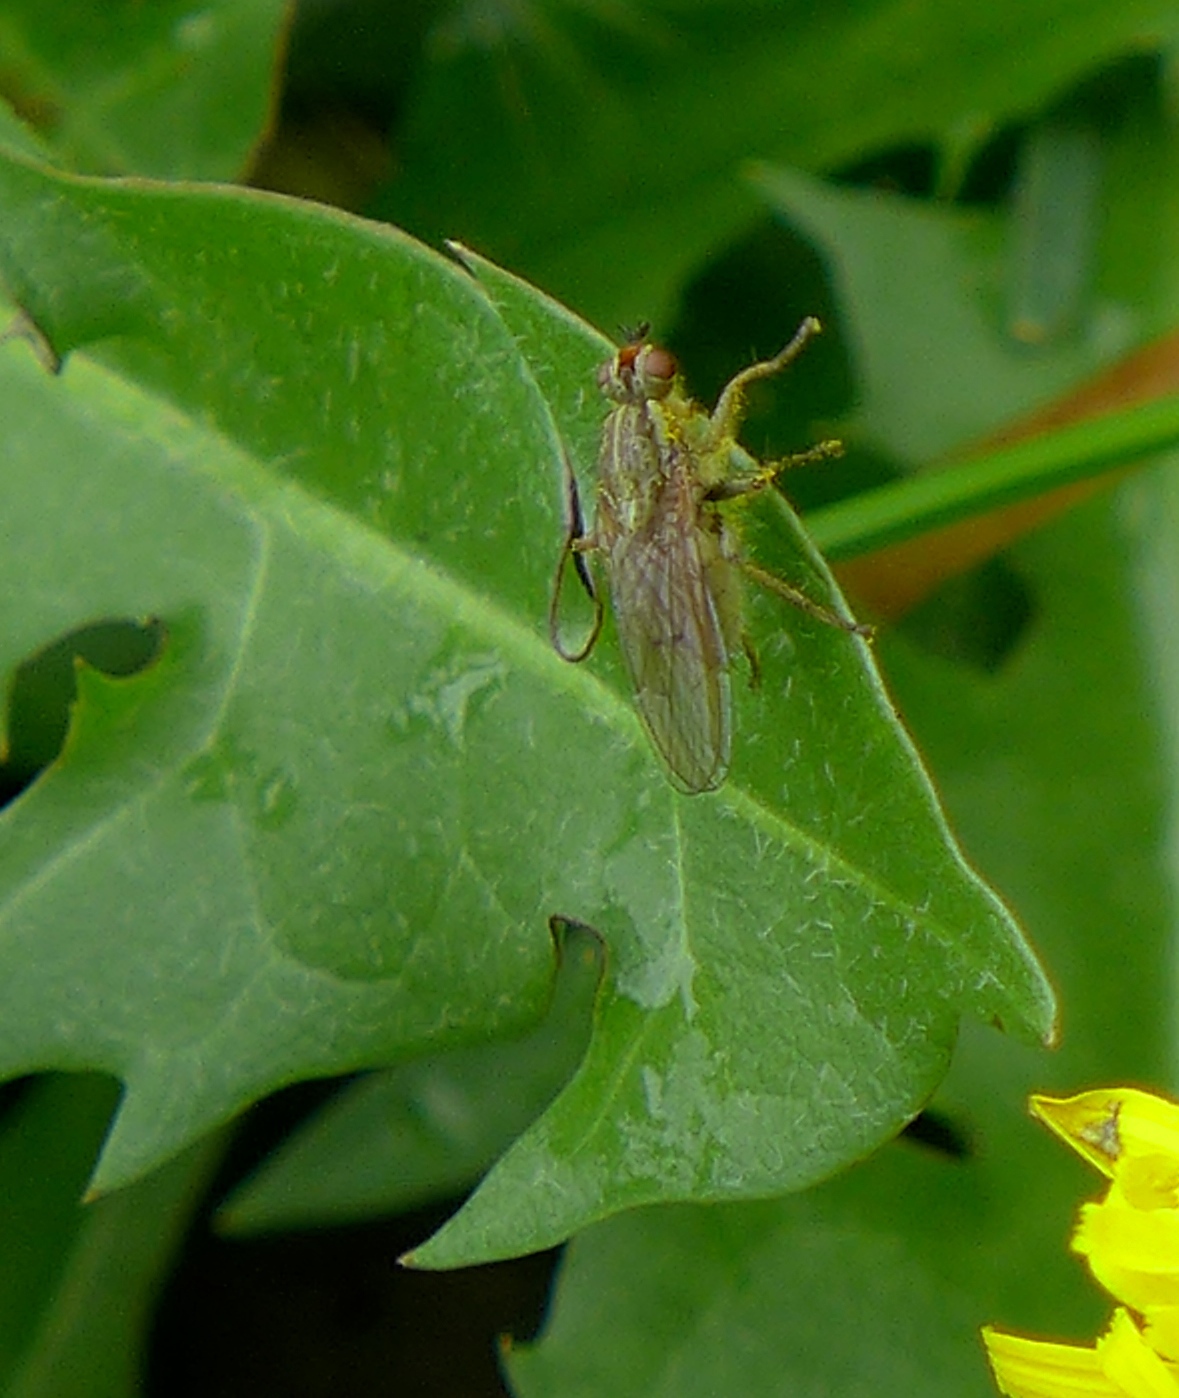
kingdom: Animalia
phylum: Arthropoda
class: Insecta
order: Diptera
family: Scathophagidae
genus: Scathophaga
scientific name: Scathophaga stercoraria
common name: Yellow dung fly
